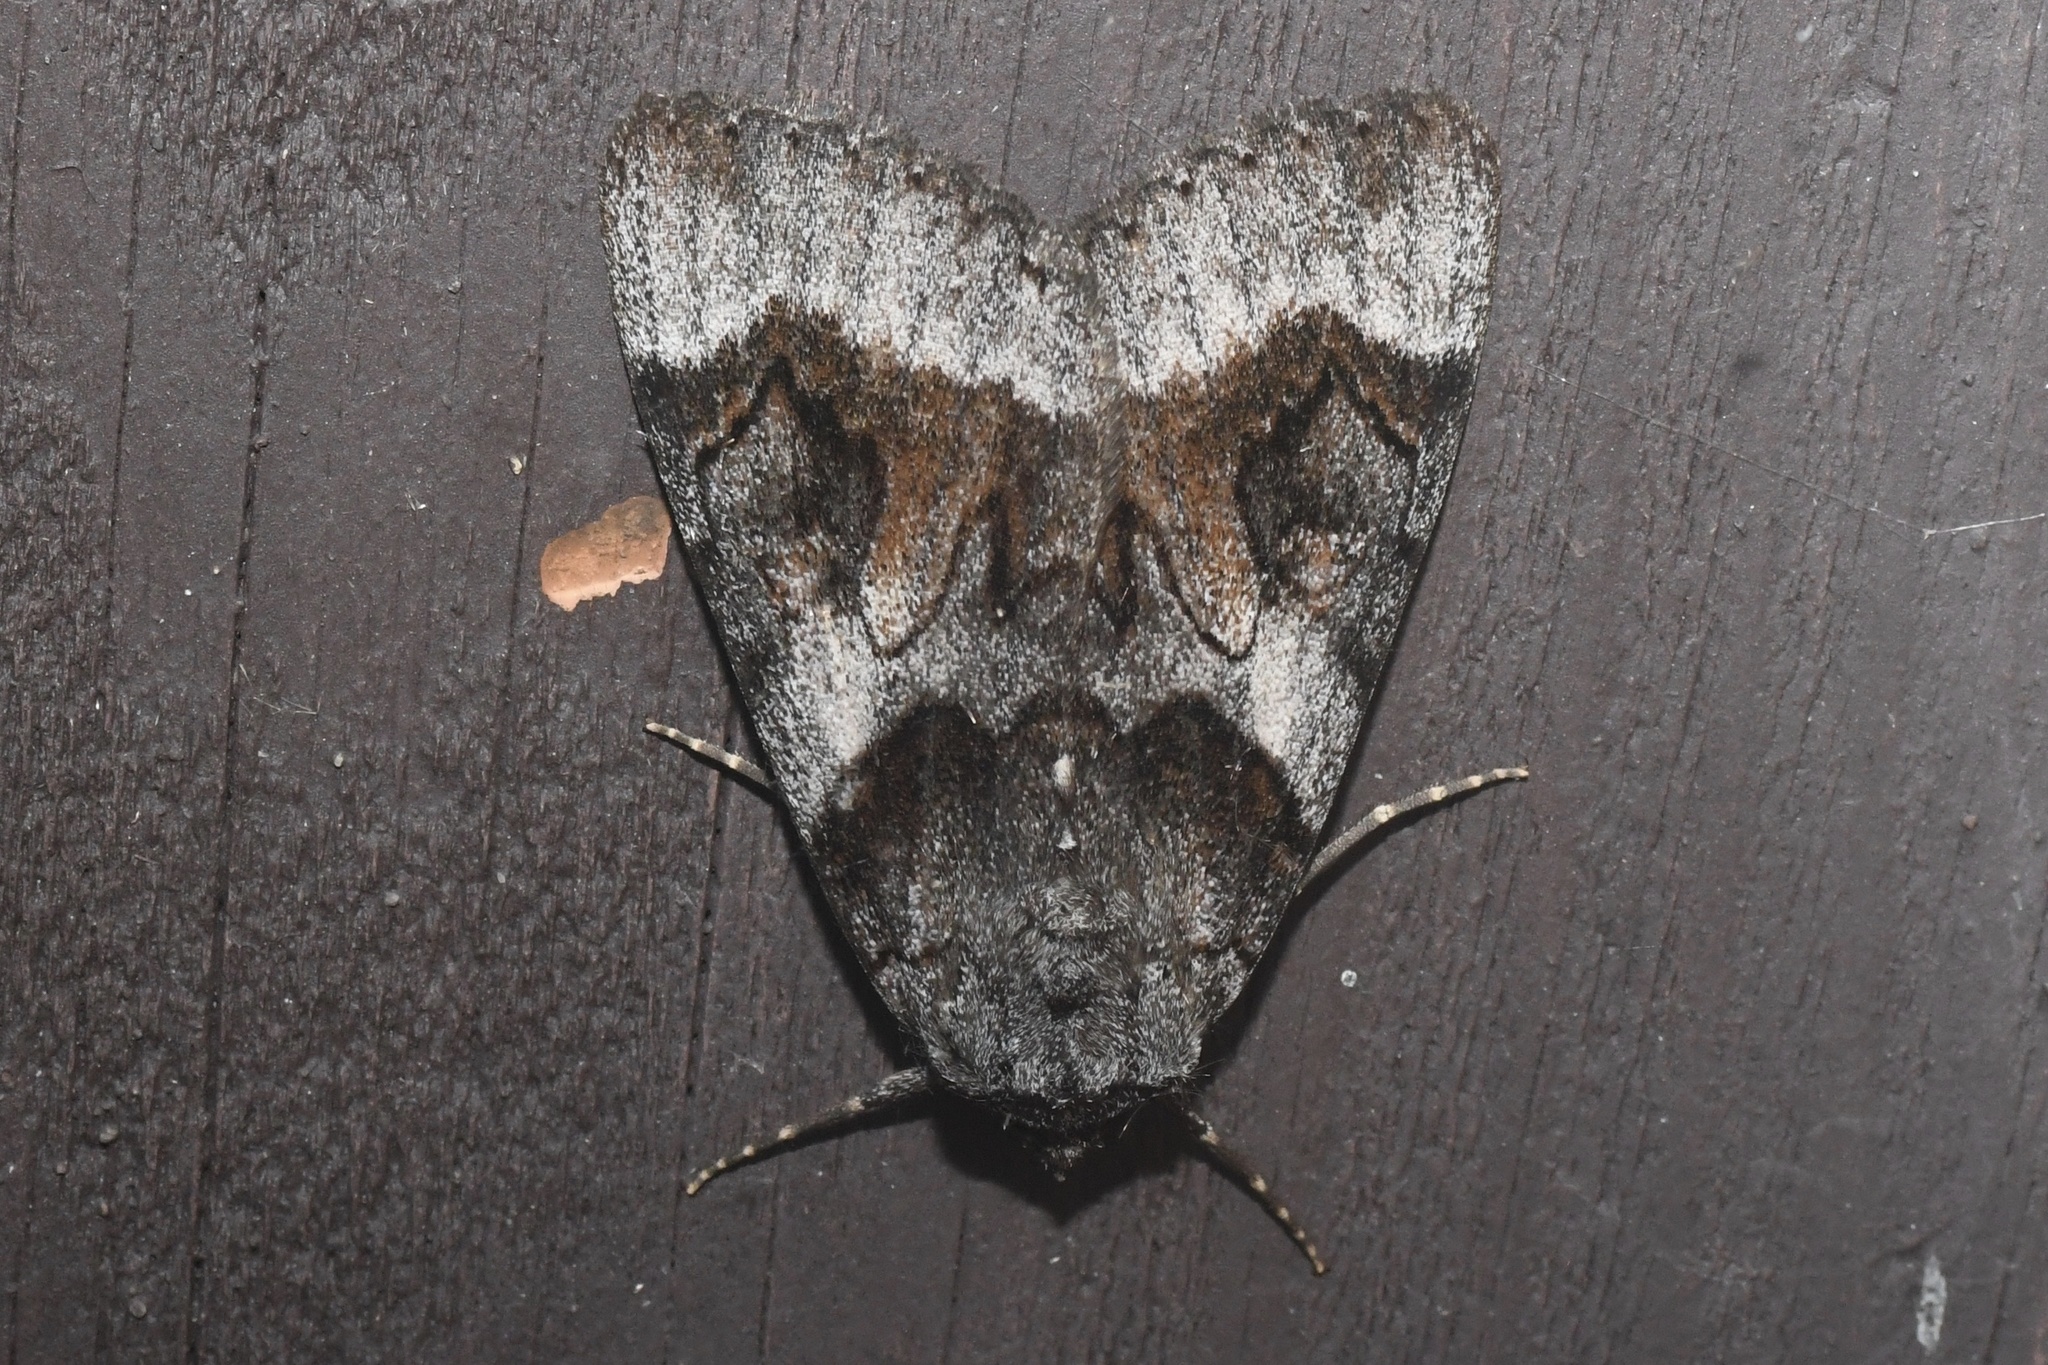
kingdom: Animalia
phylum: Arthropoda
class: Insecta
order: Lepidoptera
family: Erebidae
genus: Catocala
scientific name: Catocala badia
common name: Bay underwing
